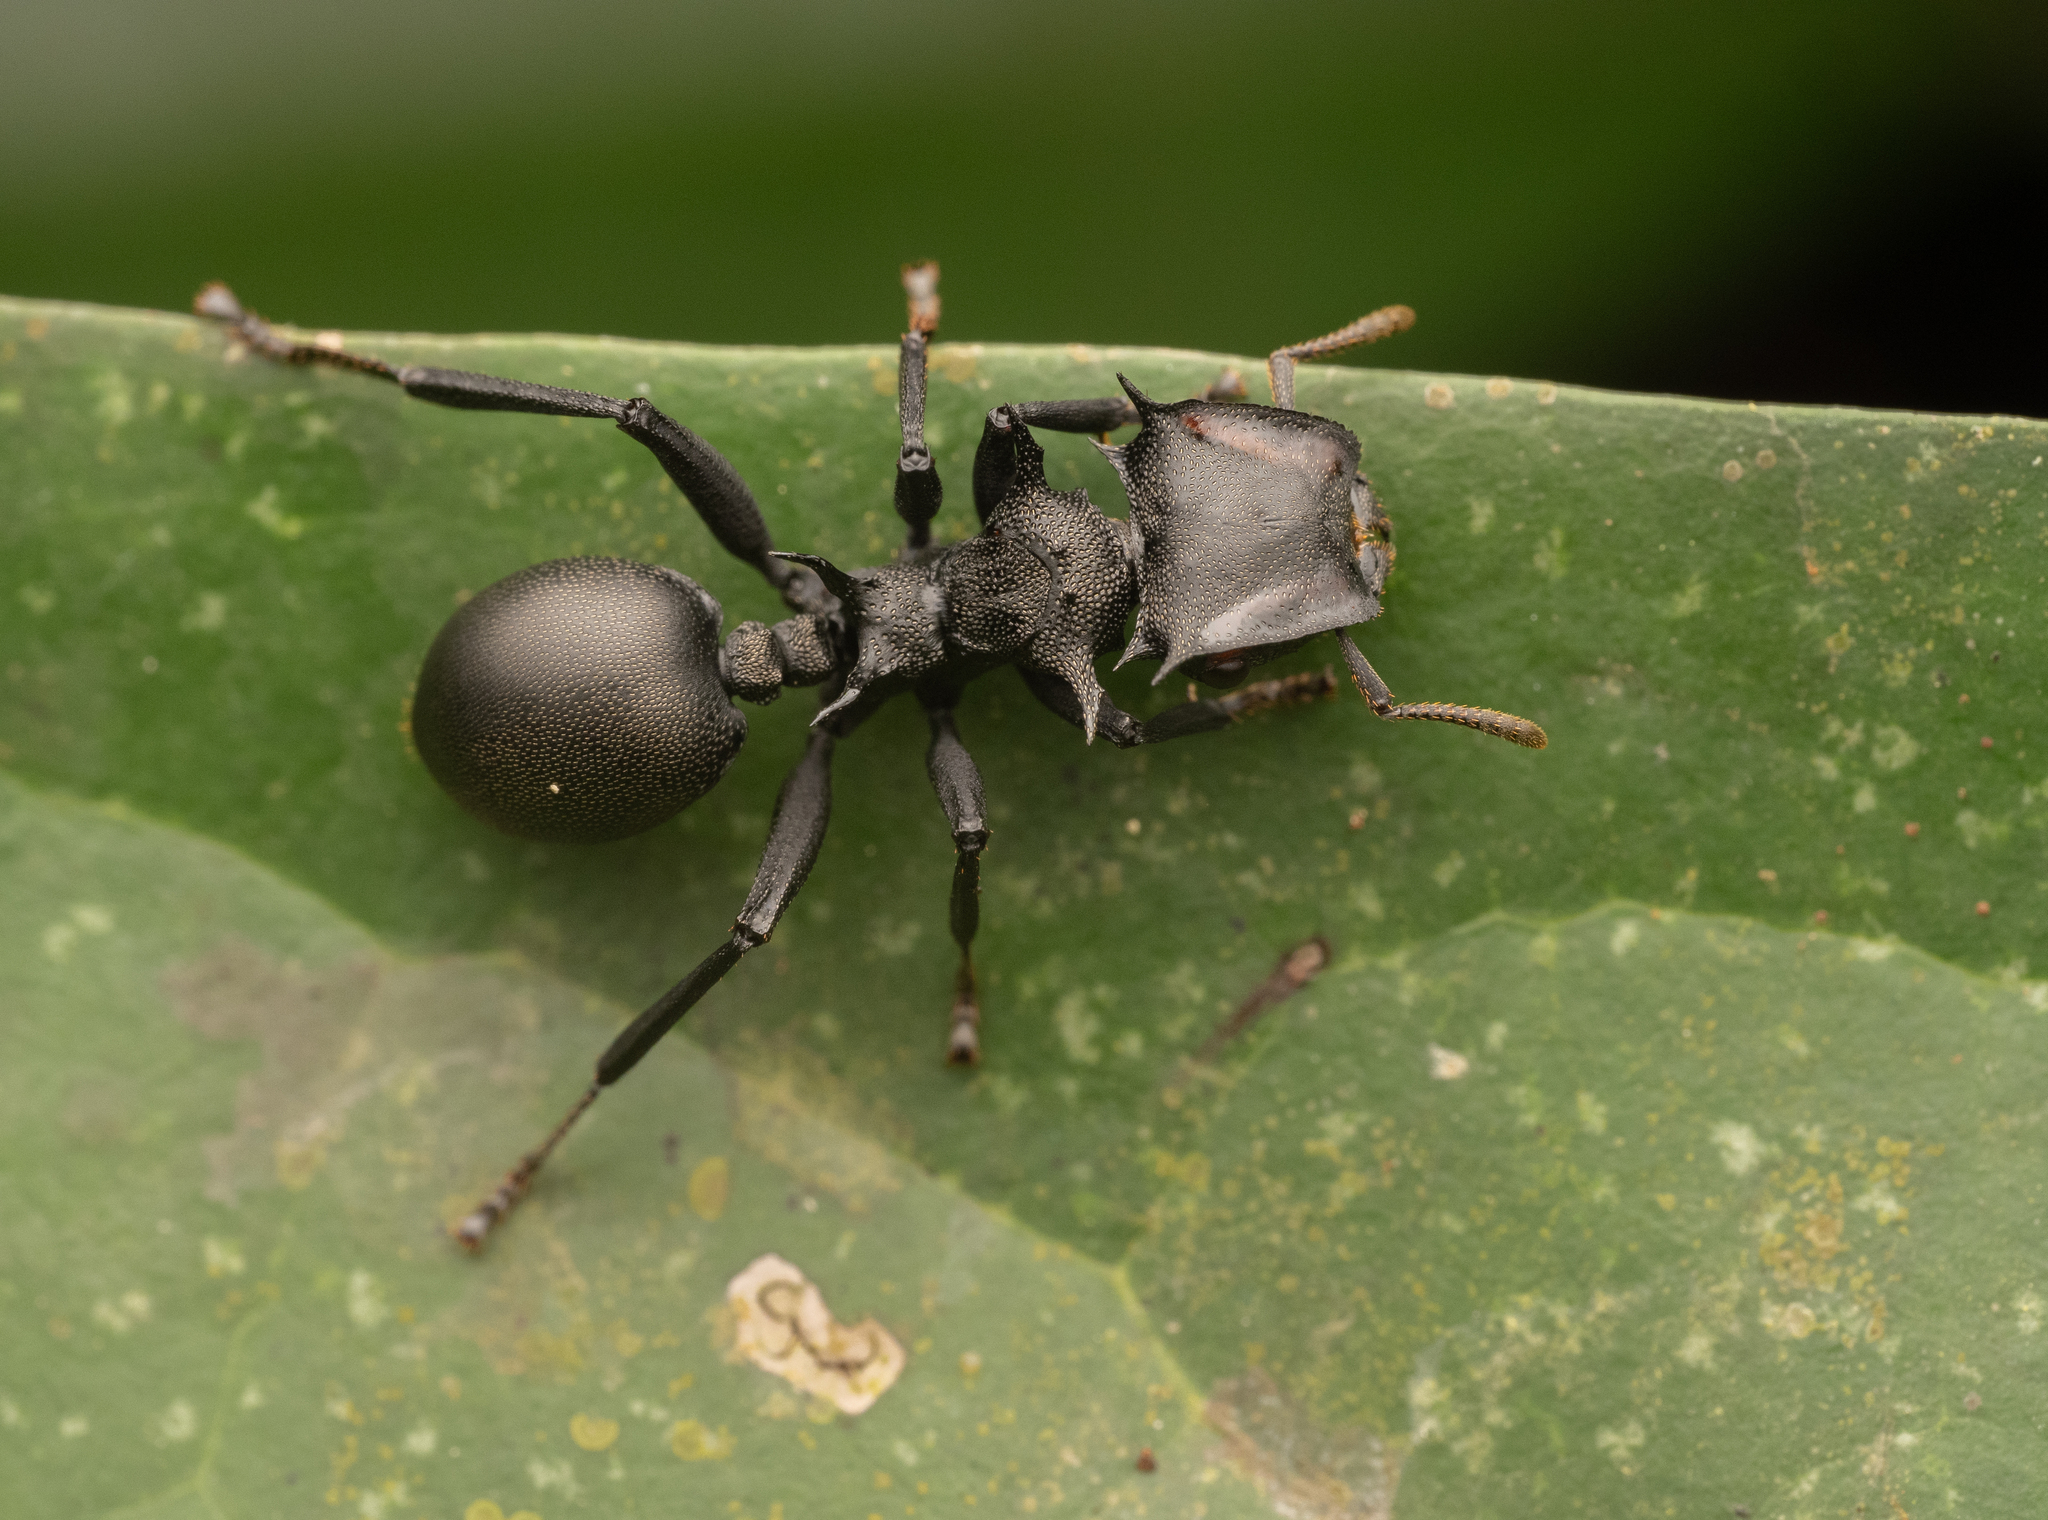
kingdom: Animalia
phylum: Arthropoda
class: Insecta
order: Hymenoptera
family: Formicidae
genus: Cephalotes
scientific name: Cephalotes atratus
